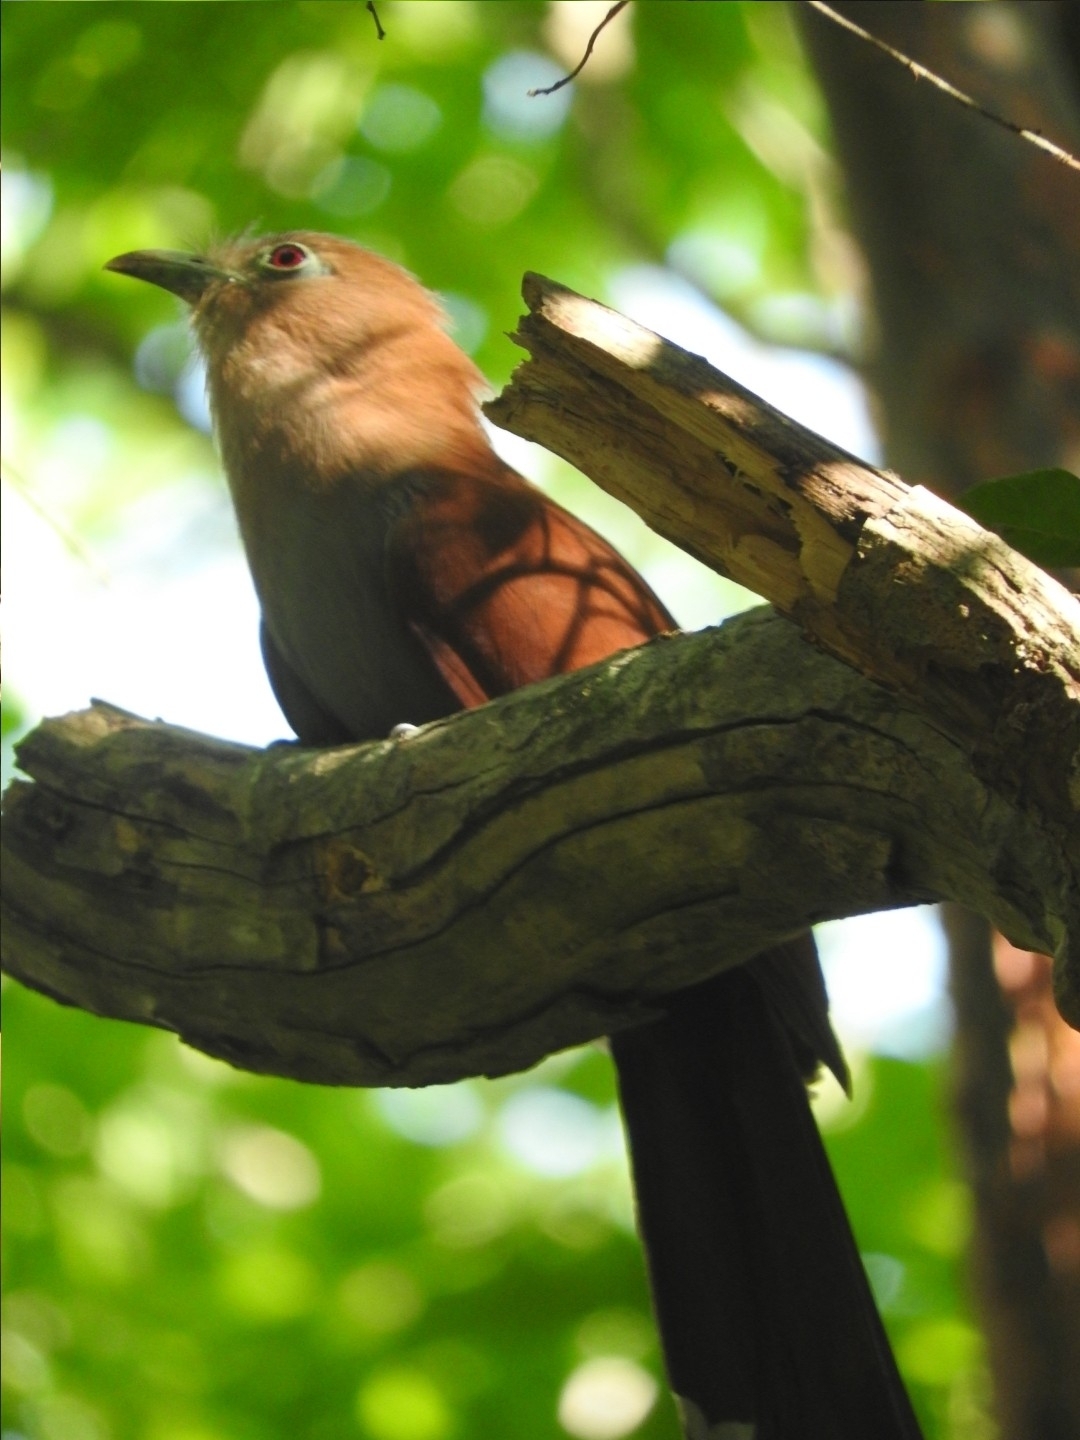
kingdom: Animalia
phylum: Chordata
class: Aves
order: Cuculiformes
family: Cuculidae
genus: Piaya
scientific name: Piaya cayana
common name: Squirrel cuckoo
